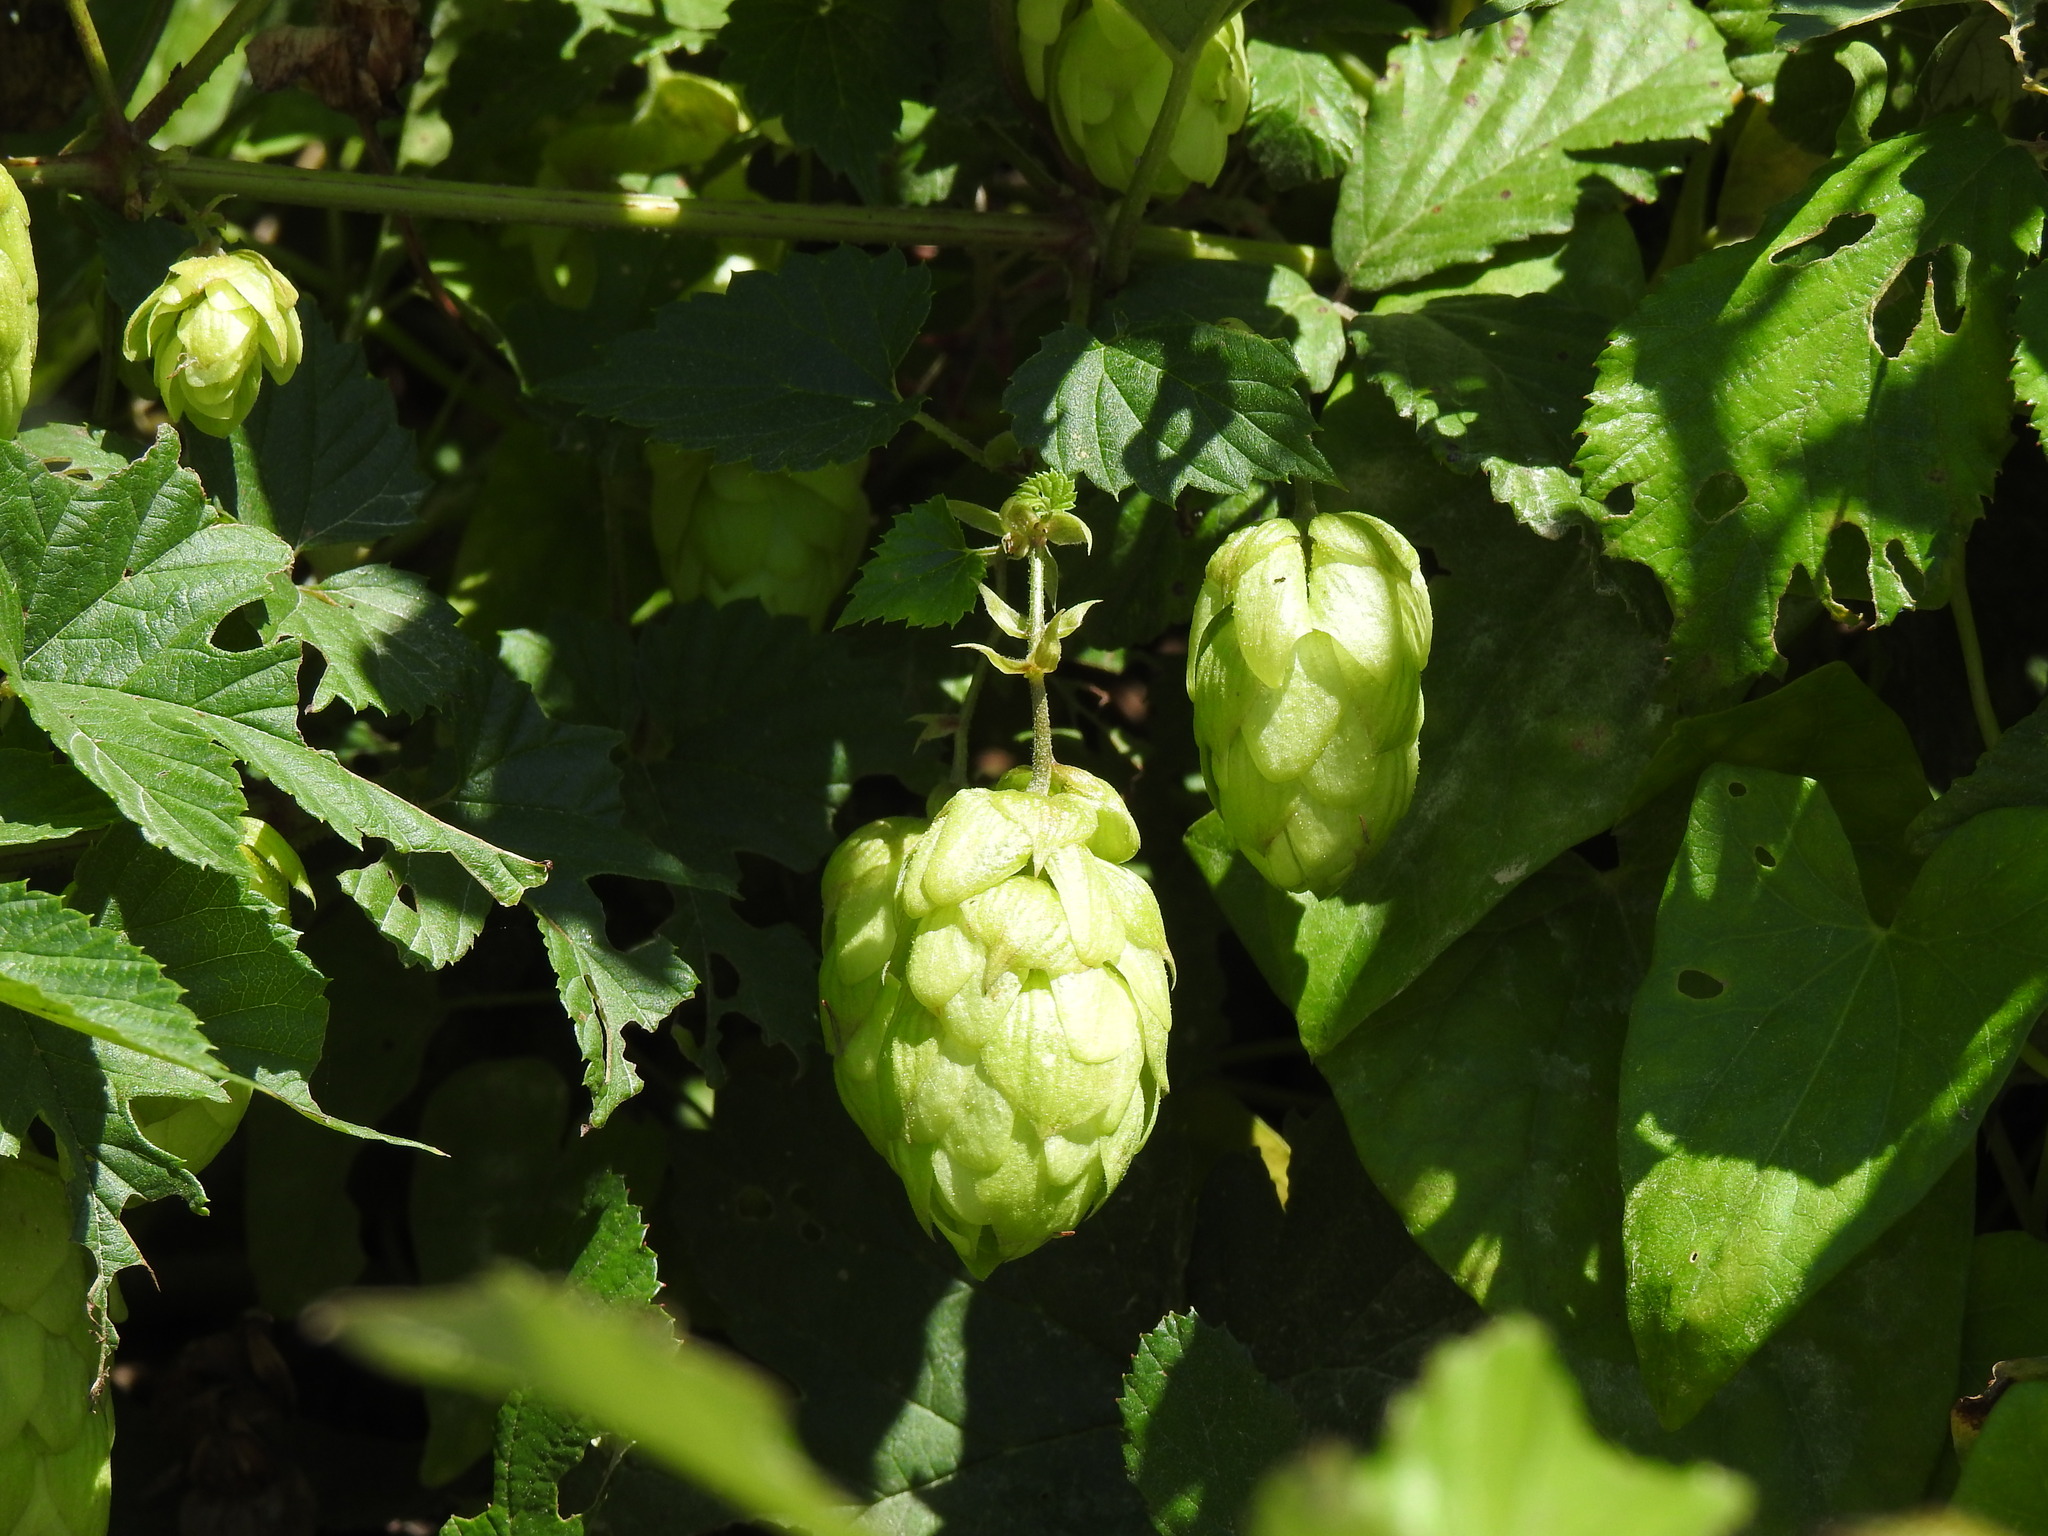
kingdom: Plantae
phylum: Tracheophyta
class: Magnoliopsida
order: Rosales
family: Cannabaceae
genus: Humulus
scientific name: Humulus lupulus
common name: Hop
